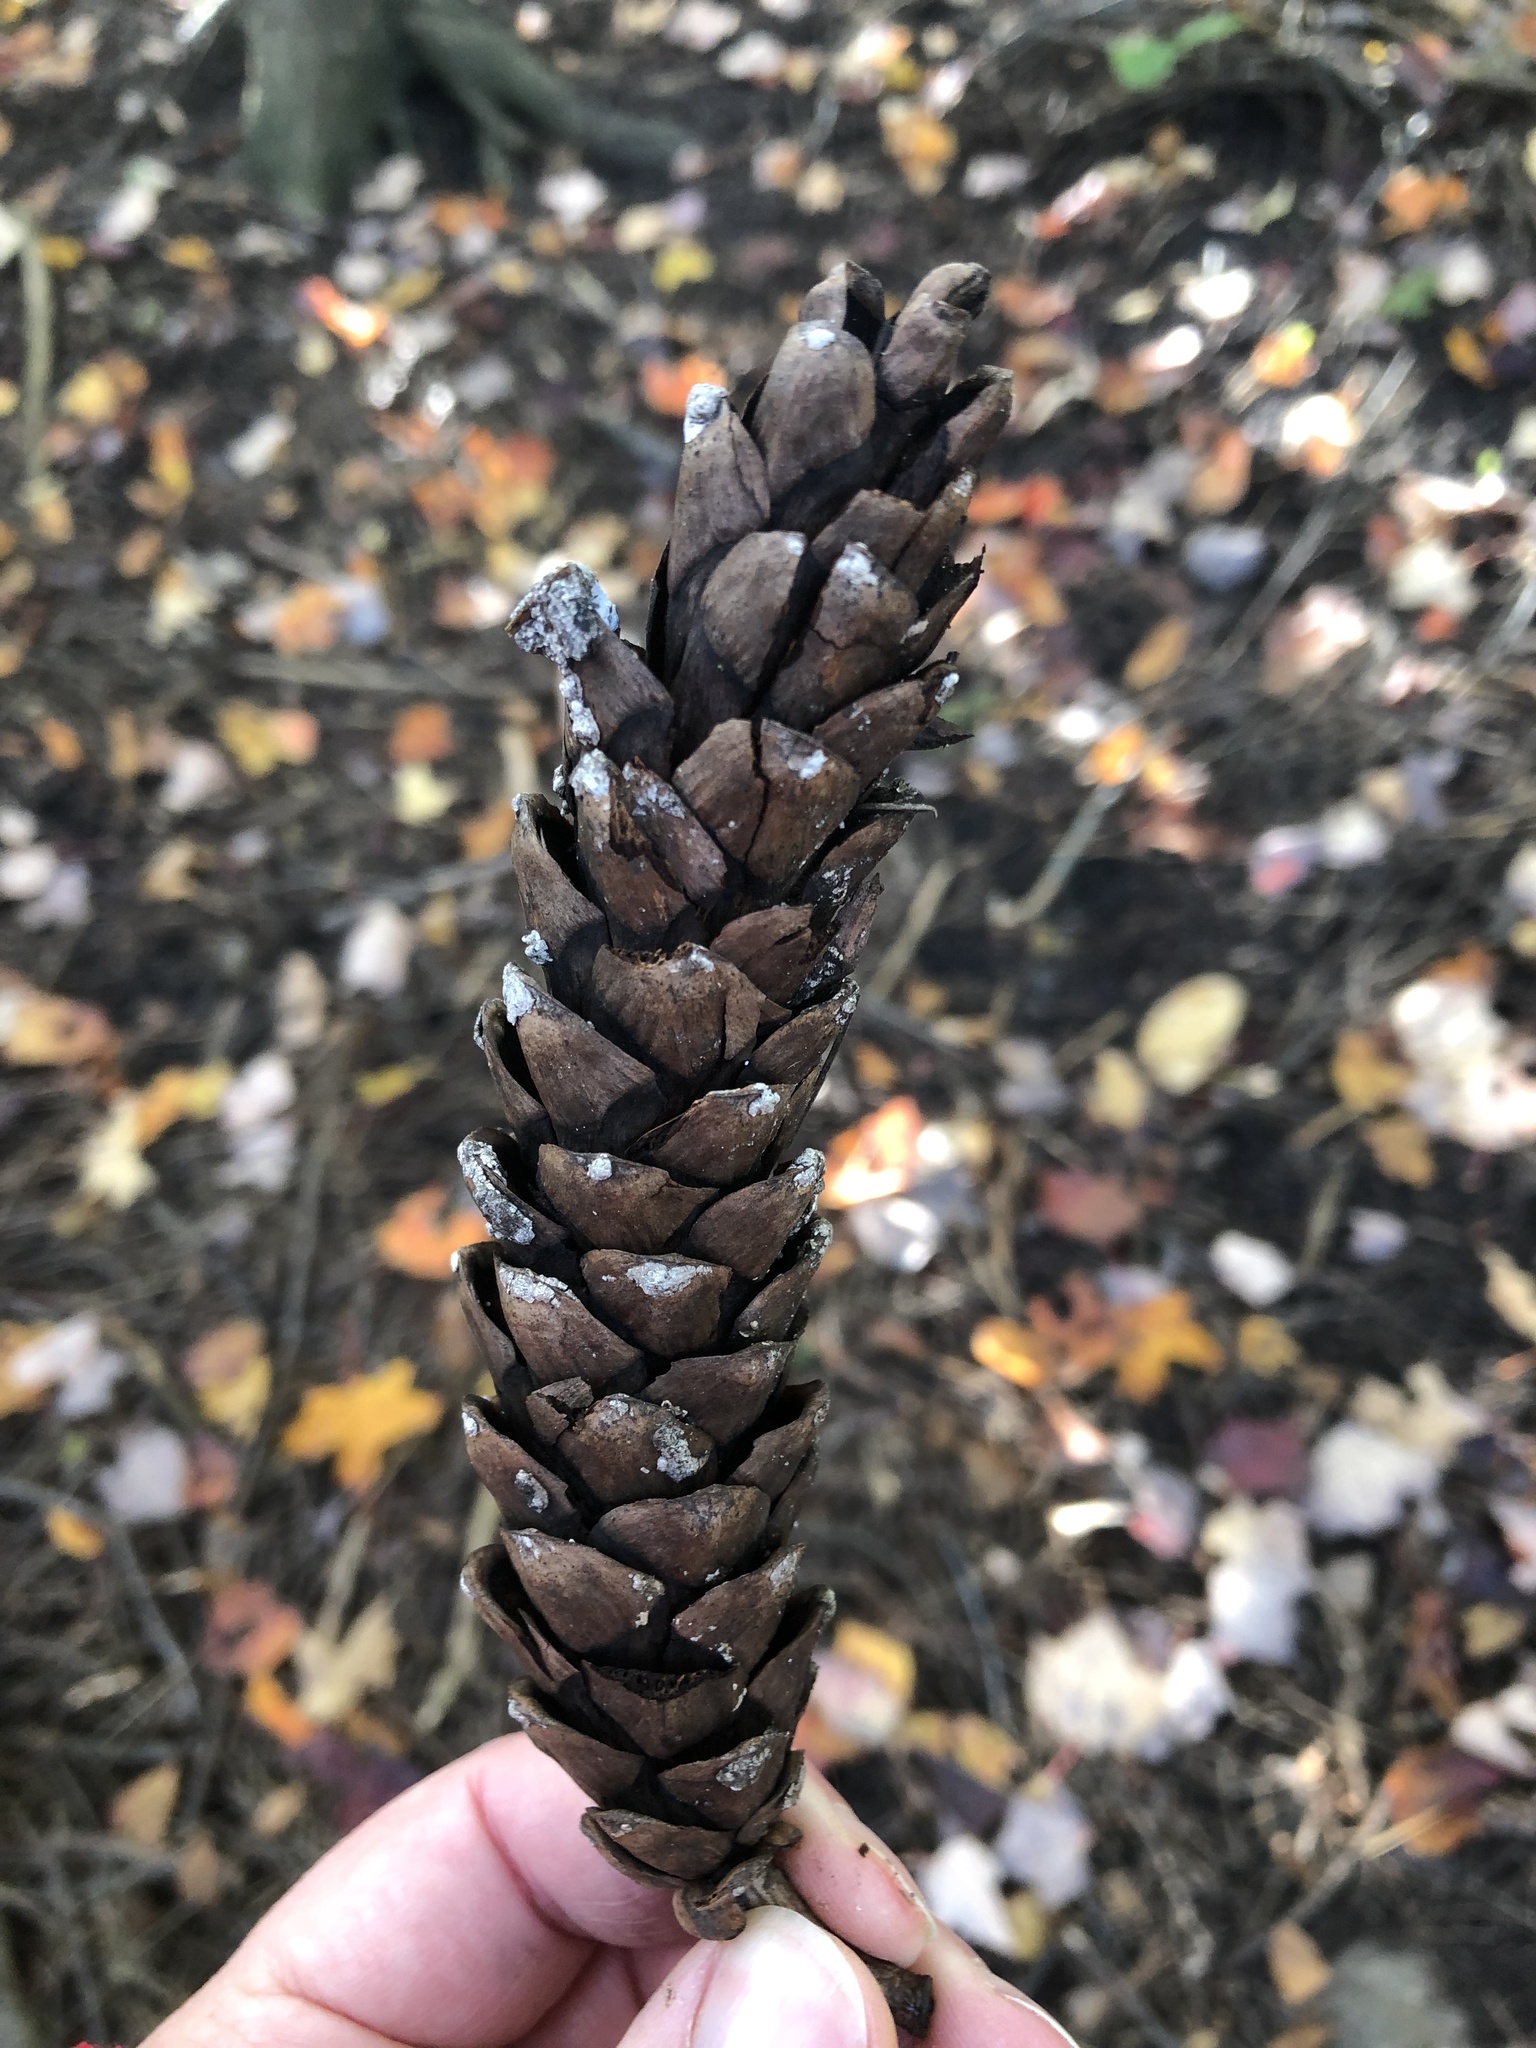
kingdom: Plantae
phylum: Tracheophyta
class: Pinopsida
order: Pinales
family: Pinaceae
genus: Pinus
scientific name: Pinus strobus
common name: Weymouth pine
